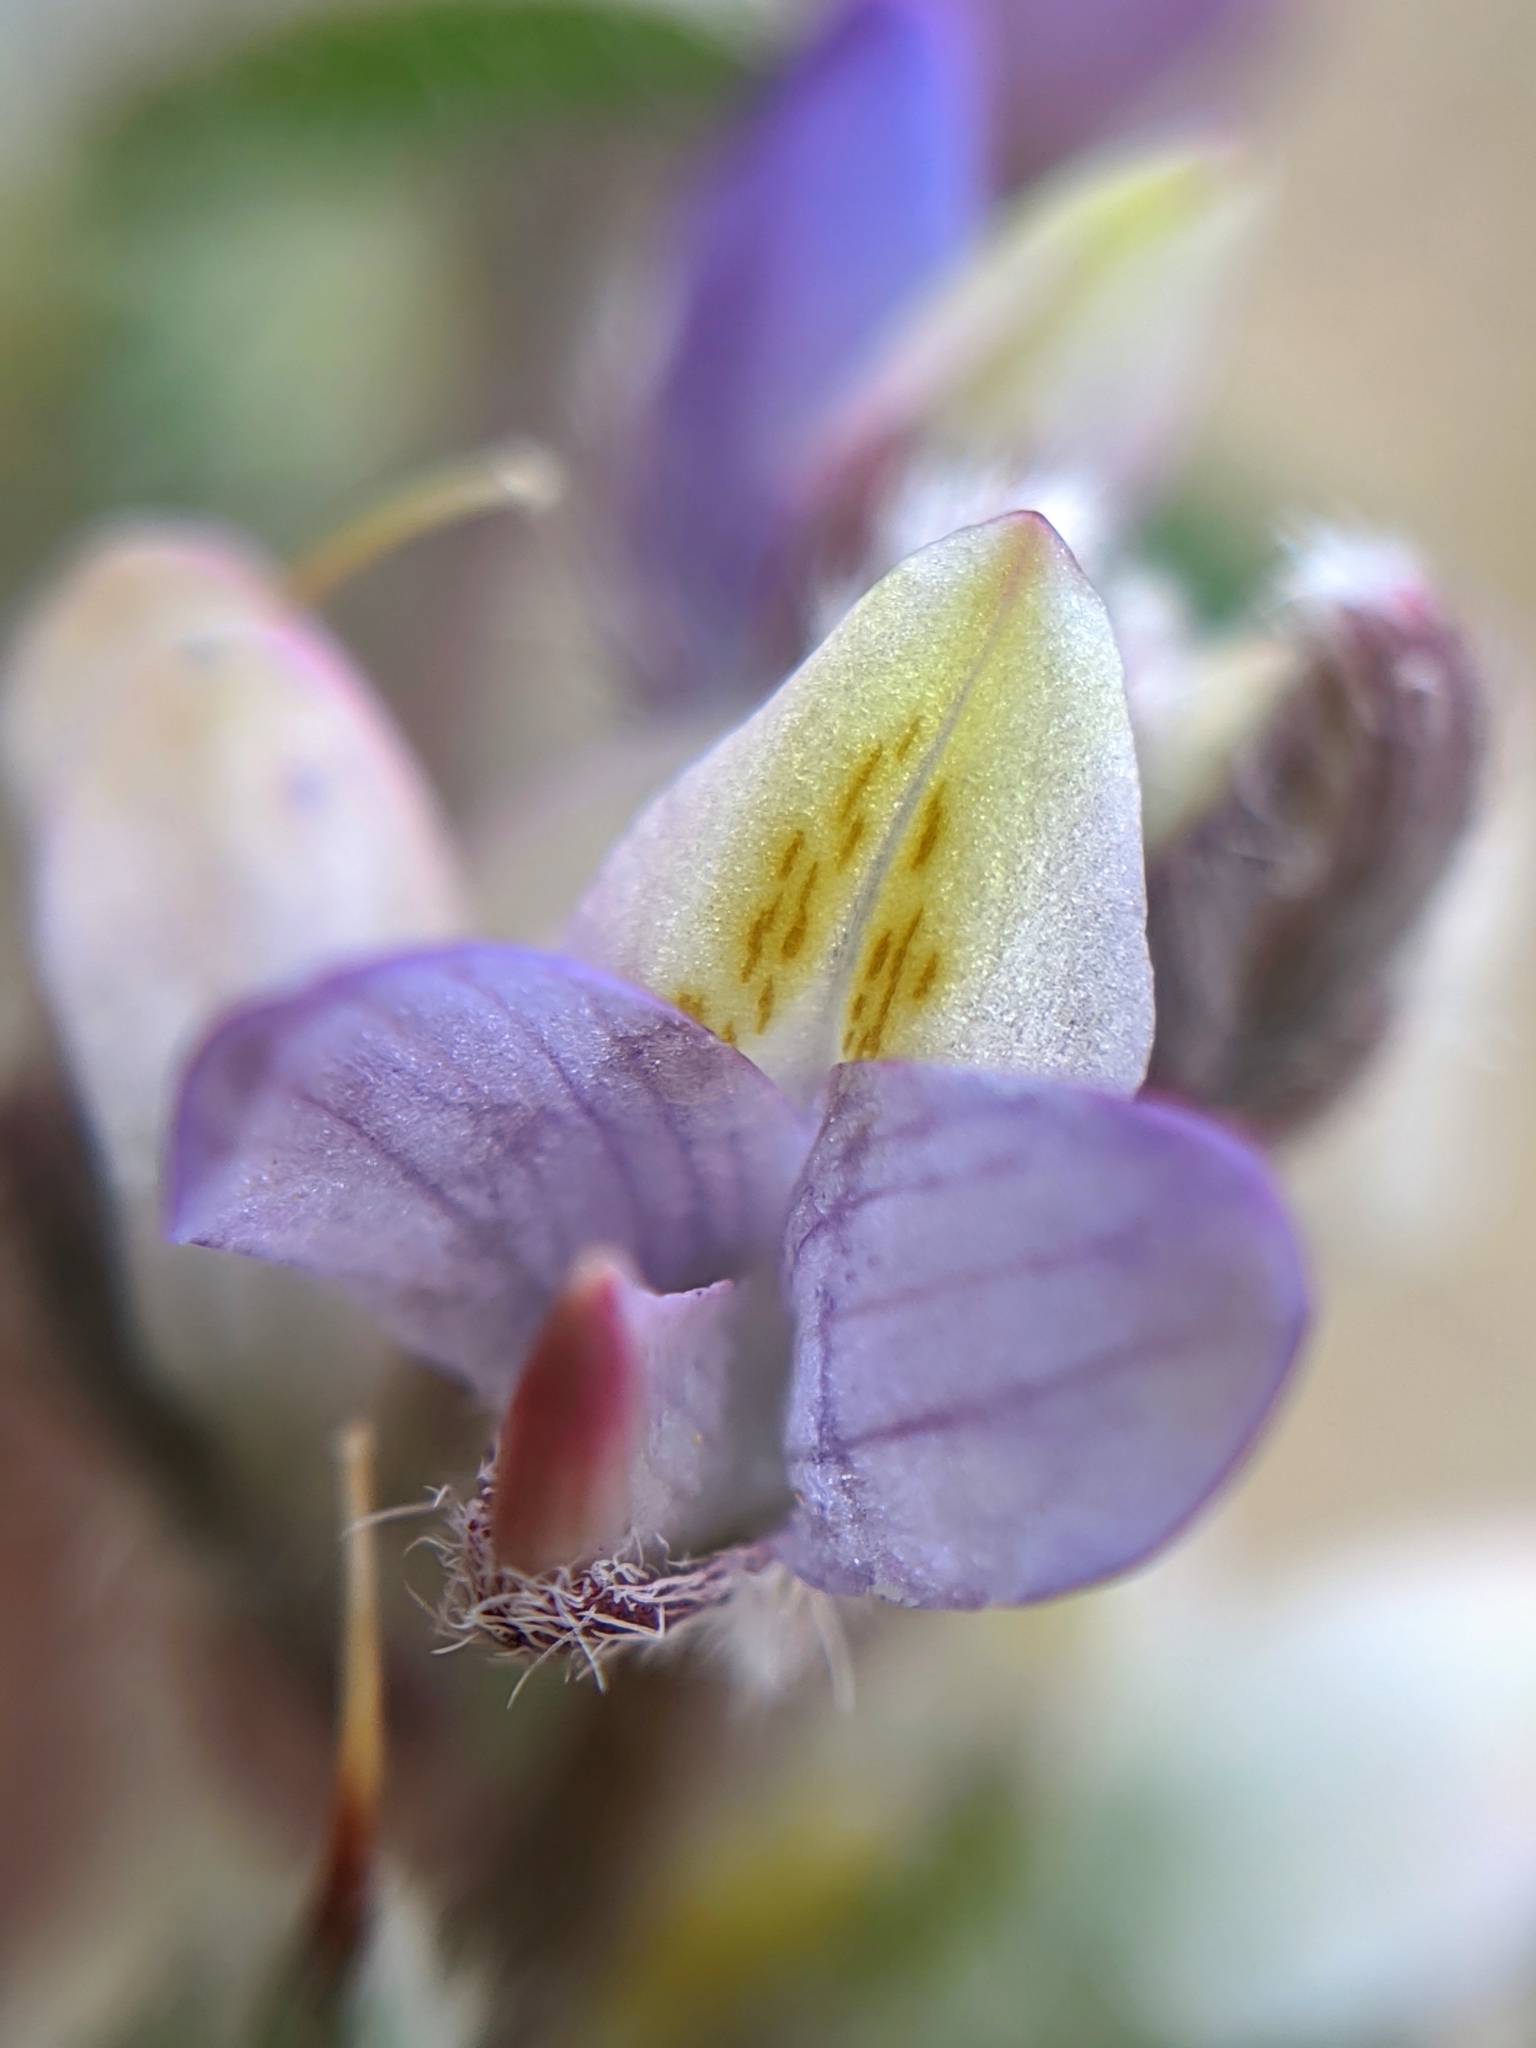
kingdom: Plantae
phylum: Tracheophyta
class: Magnoliopsida
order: Fabales
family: Fabaceae
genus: Lupinus
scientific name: Lupinus concinnus
